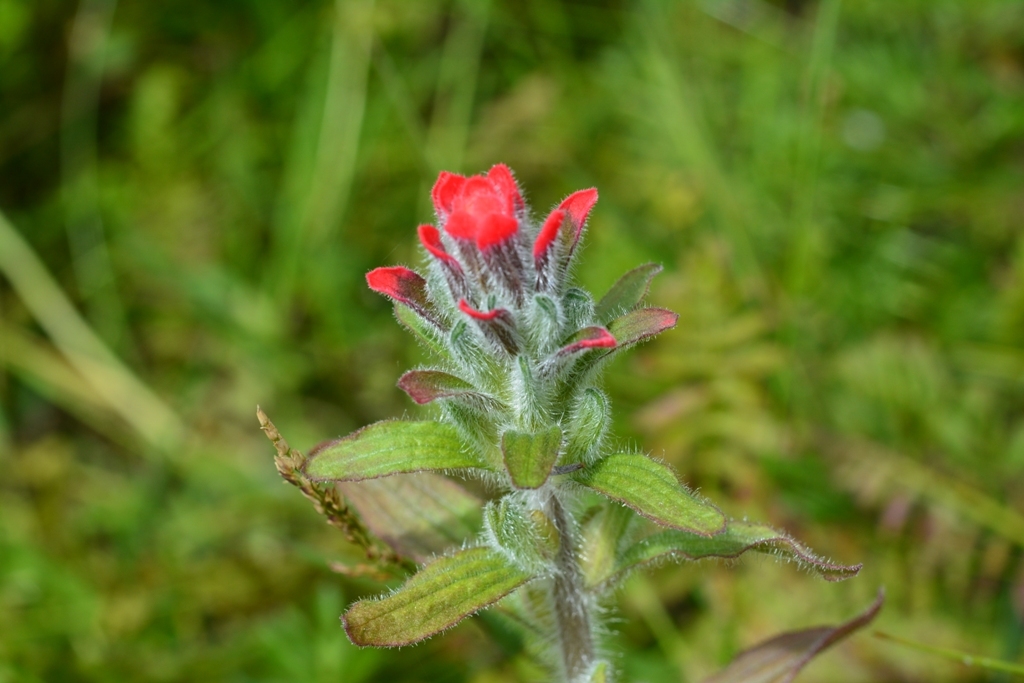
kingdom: Plantae
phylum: Tracheophyta
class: Magnoliopsida
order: Lamiales
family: Orobanchaceae
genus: Castilleja
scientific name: Castilleja arvensis
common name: Indian paintbrush
